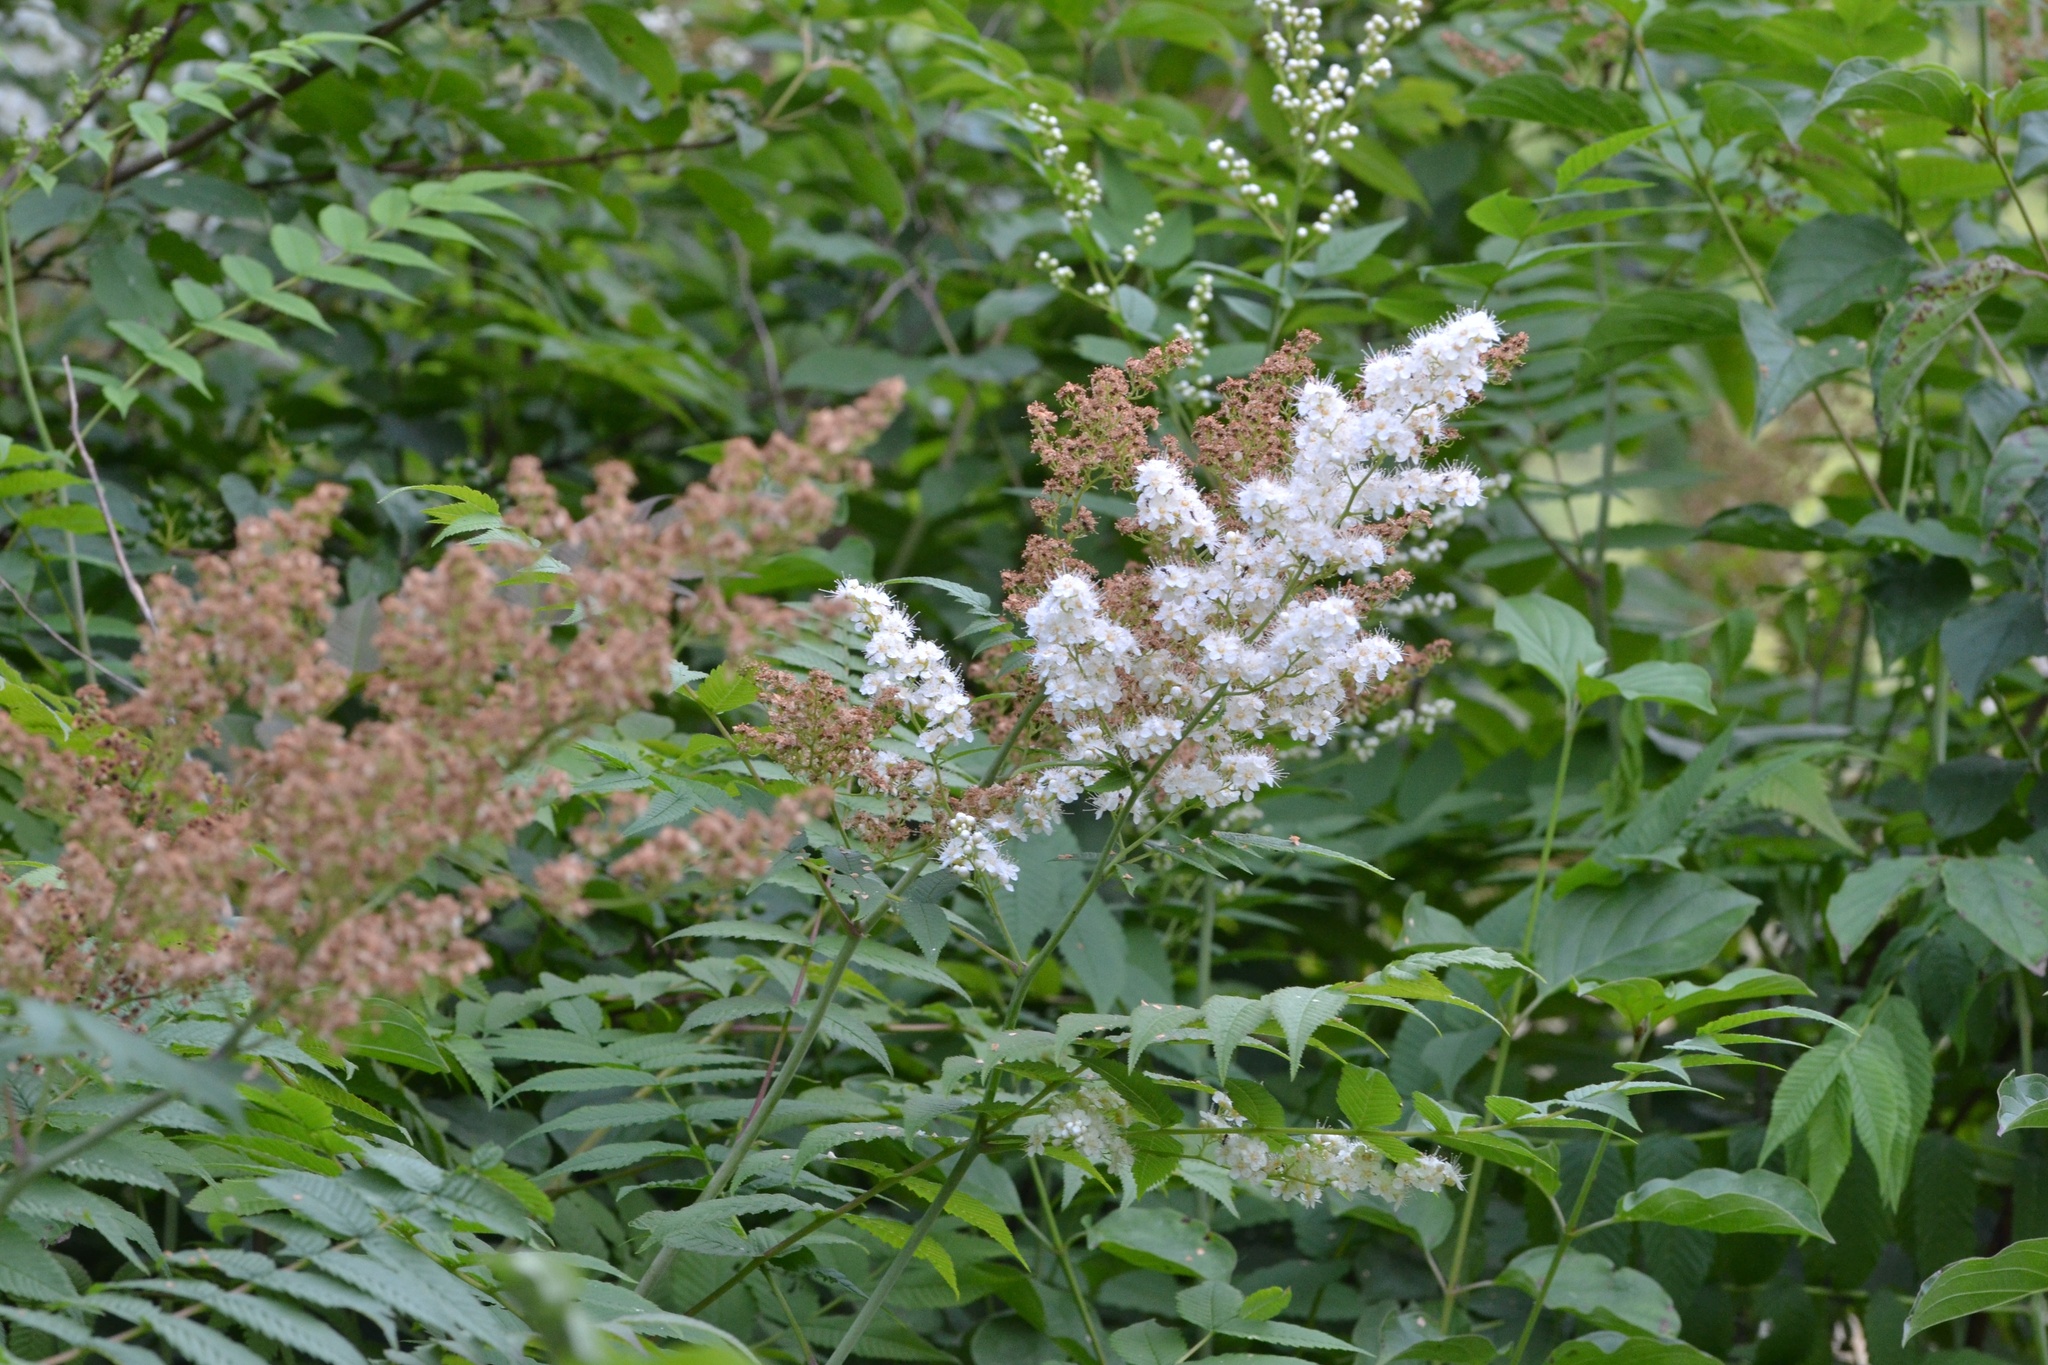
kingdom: Plantae
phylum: Tracheophyta
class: Magnoliopsida
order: Rosales
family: Rosaceae
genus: Sorbaria
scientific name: Sorbaria sorbifolia
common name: False spiraea
